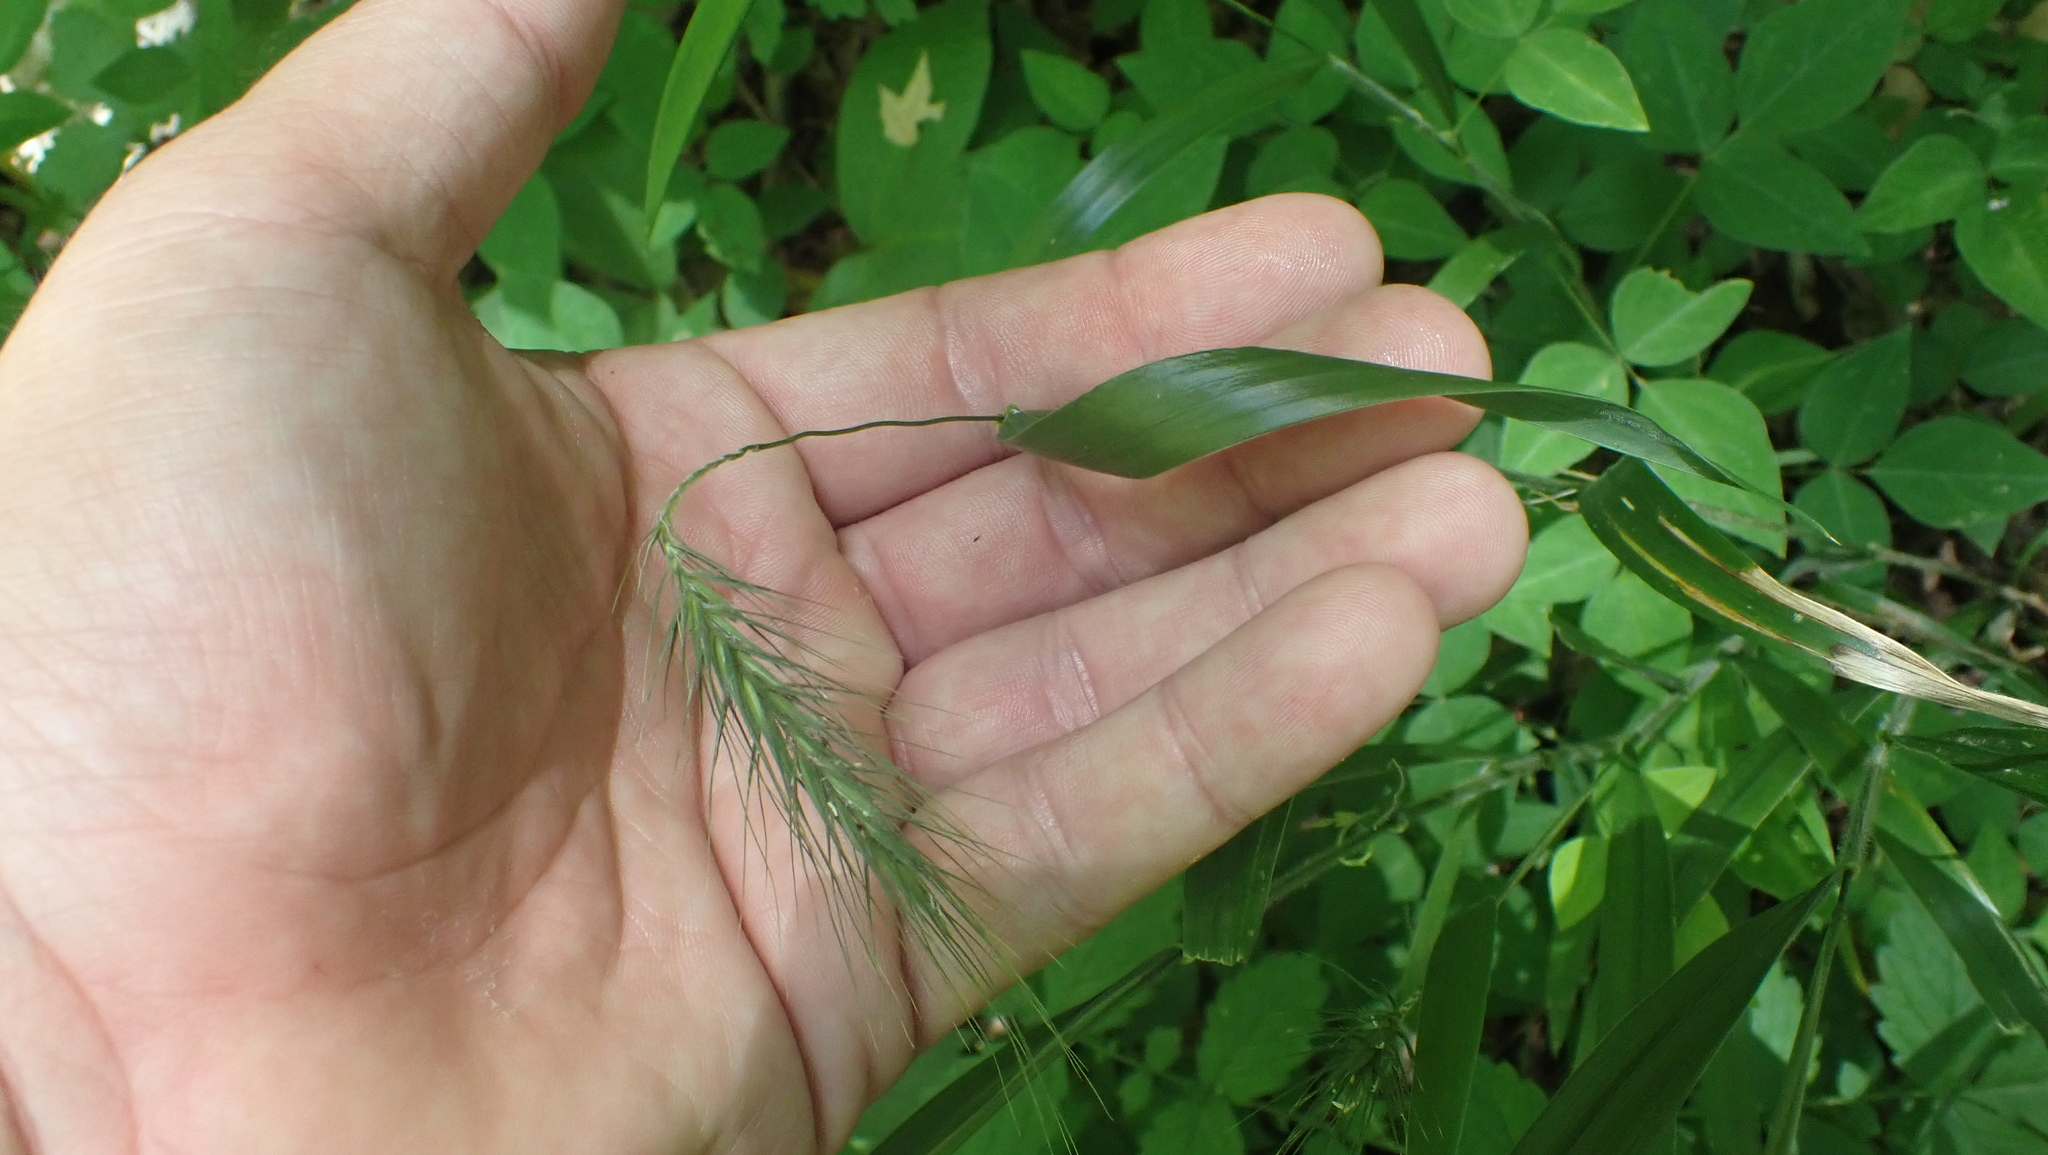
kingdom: Plantae
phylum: Tracheophyta
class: Liliopsida
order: Poales
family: Poaceae
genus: Elymus
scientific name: Elymus villosus
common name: Downy wild rye
